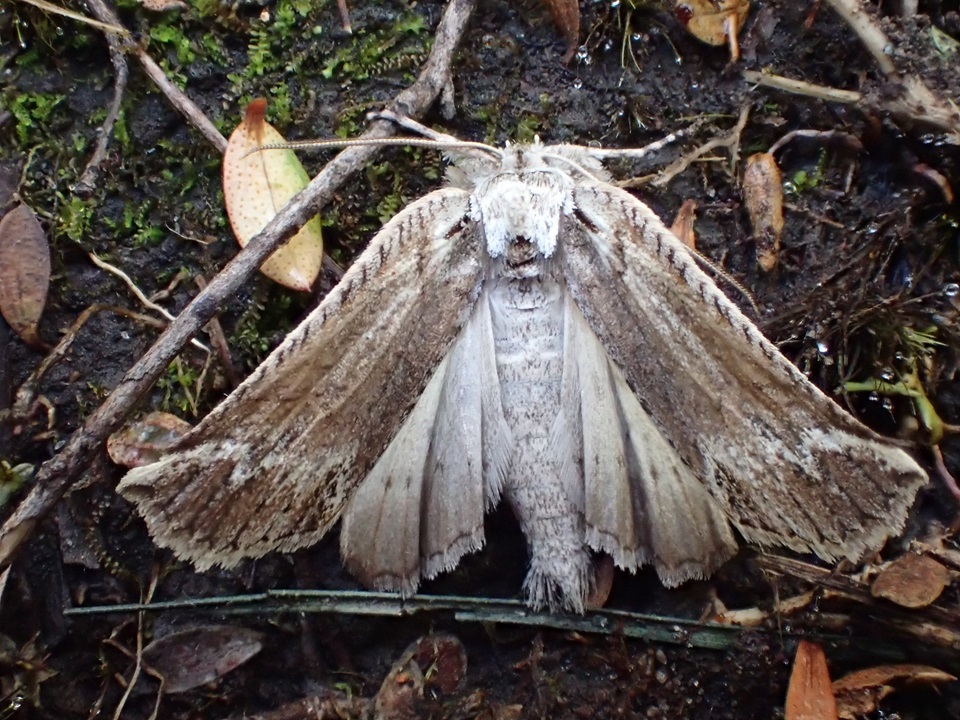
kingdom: Animalia
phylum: Arthropoda
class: Insecta
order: Lepidoptera
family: Geometridae
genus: Declana
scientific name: Declana
